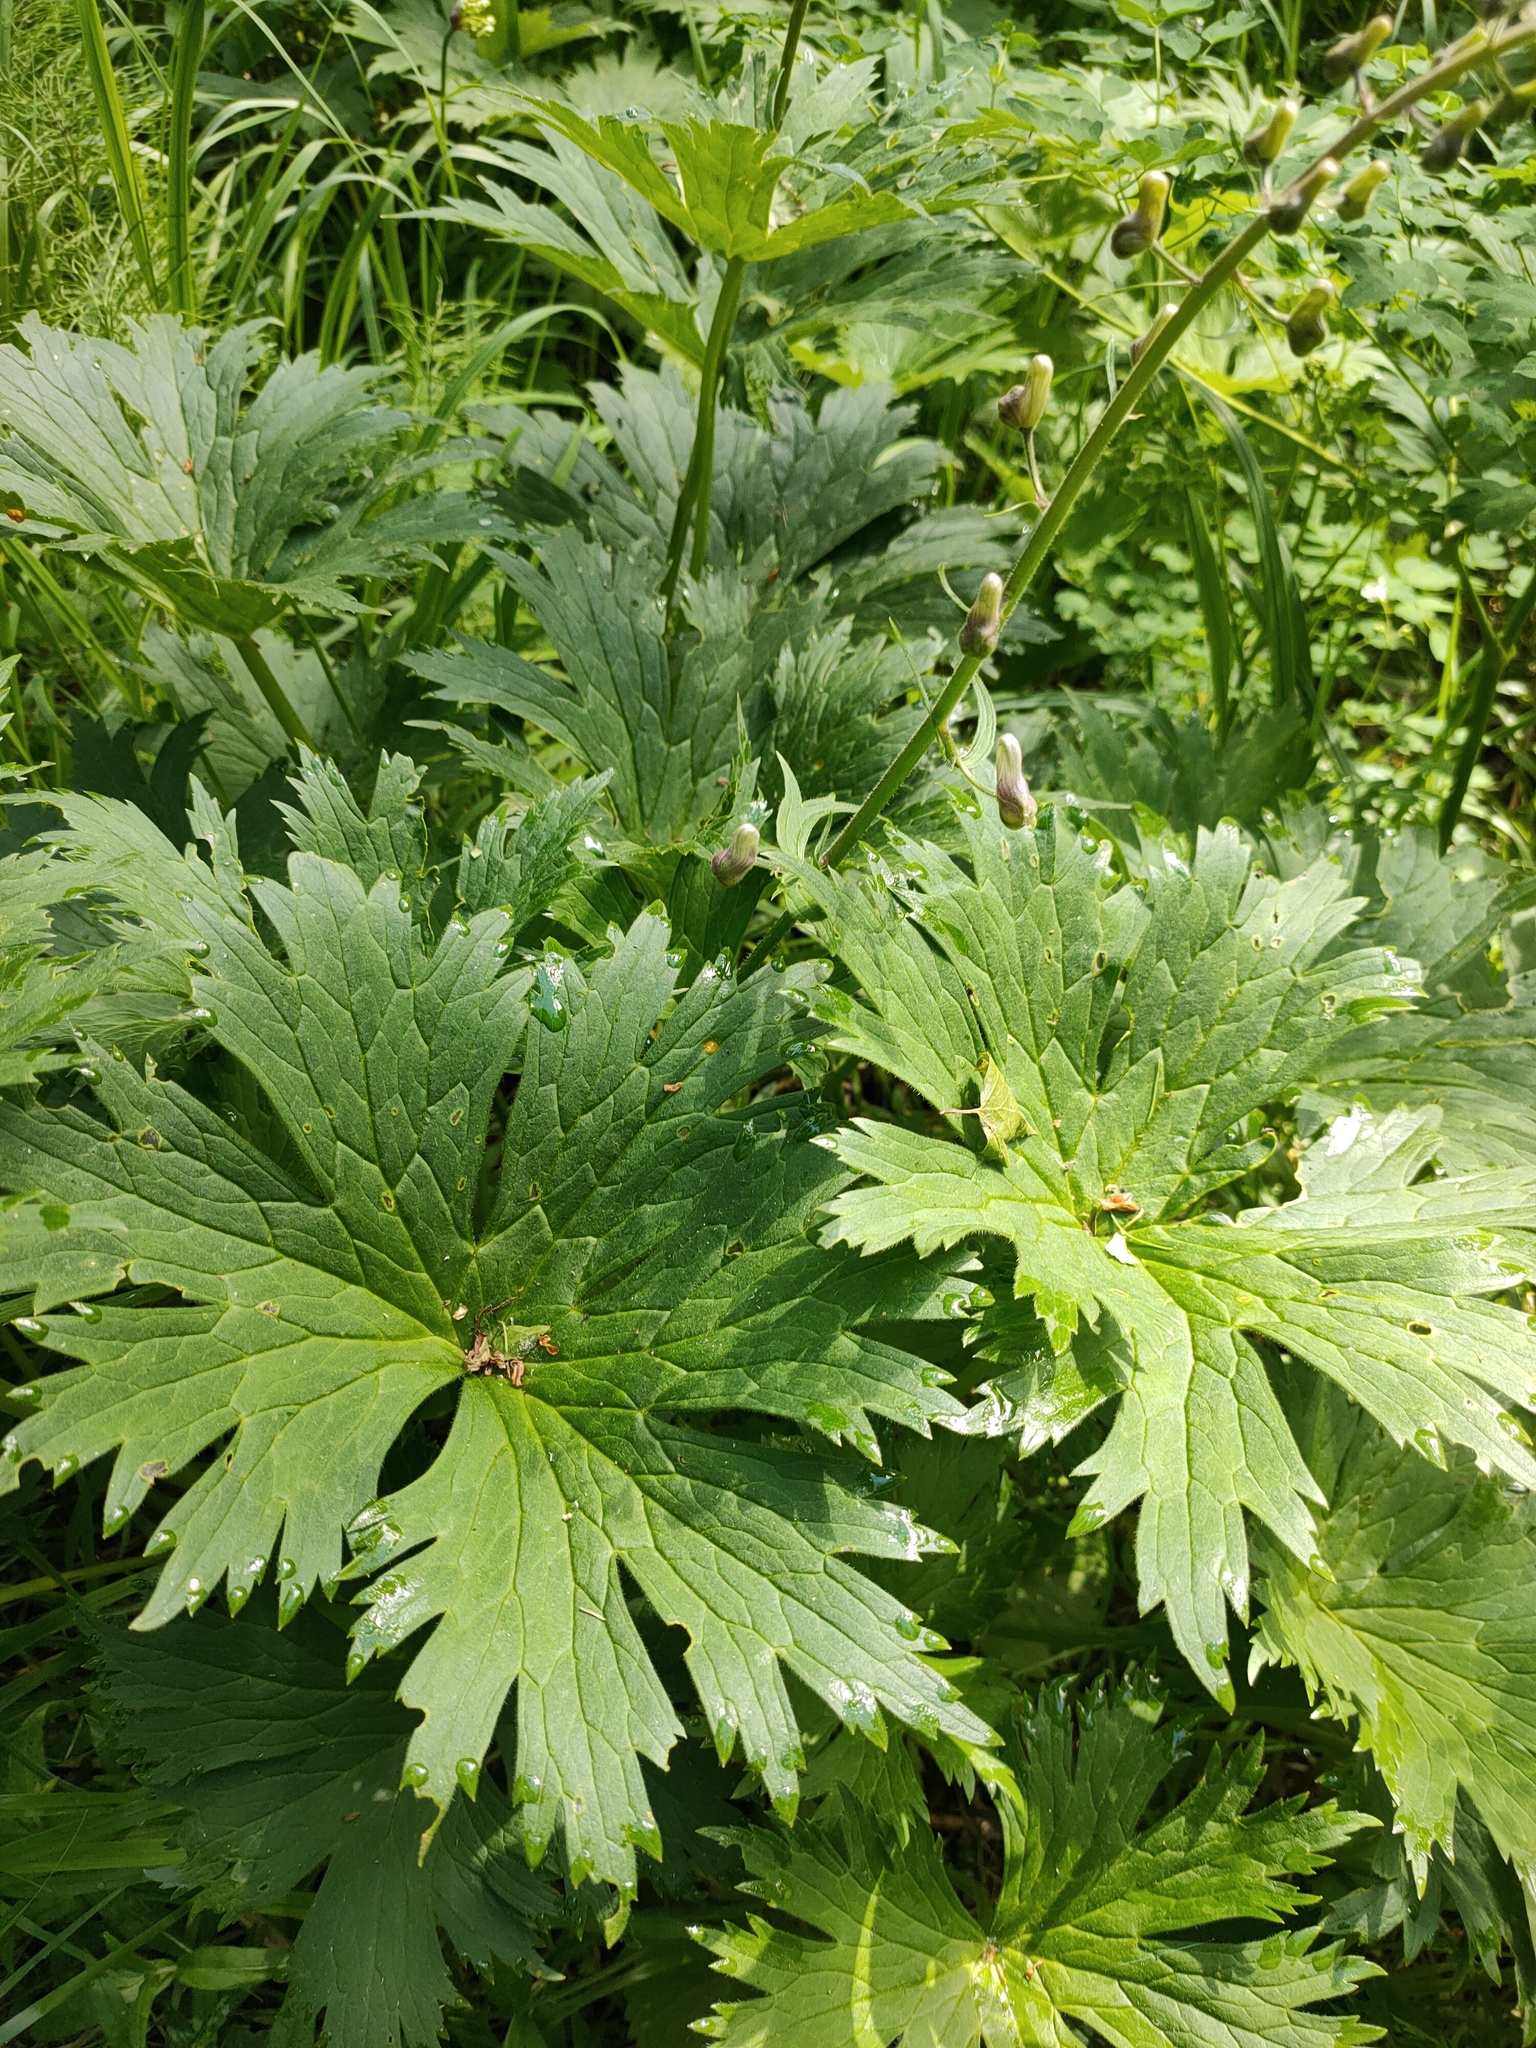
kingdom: Plantae
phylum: Tracheophyta
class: Magnoliopsida
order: Ranunculales
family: Ranunculaceae
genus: Aconitum
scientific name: Aconitum septentrionale
